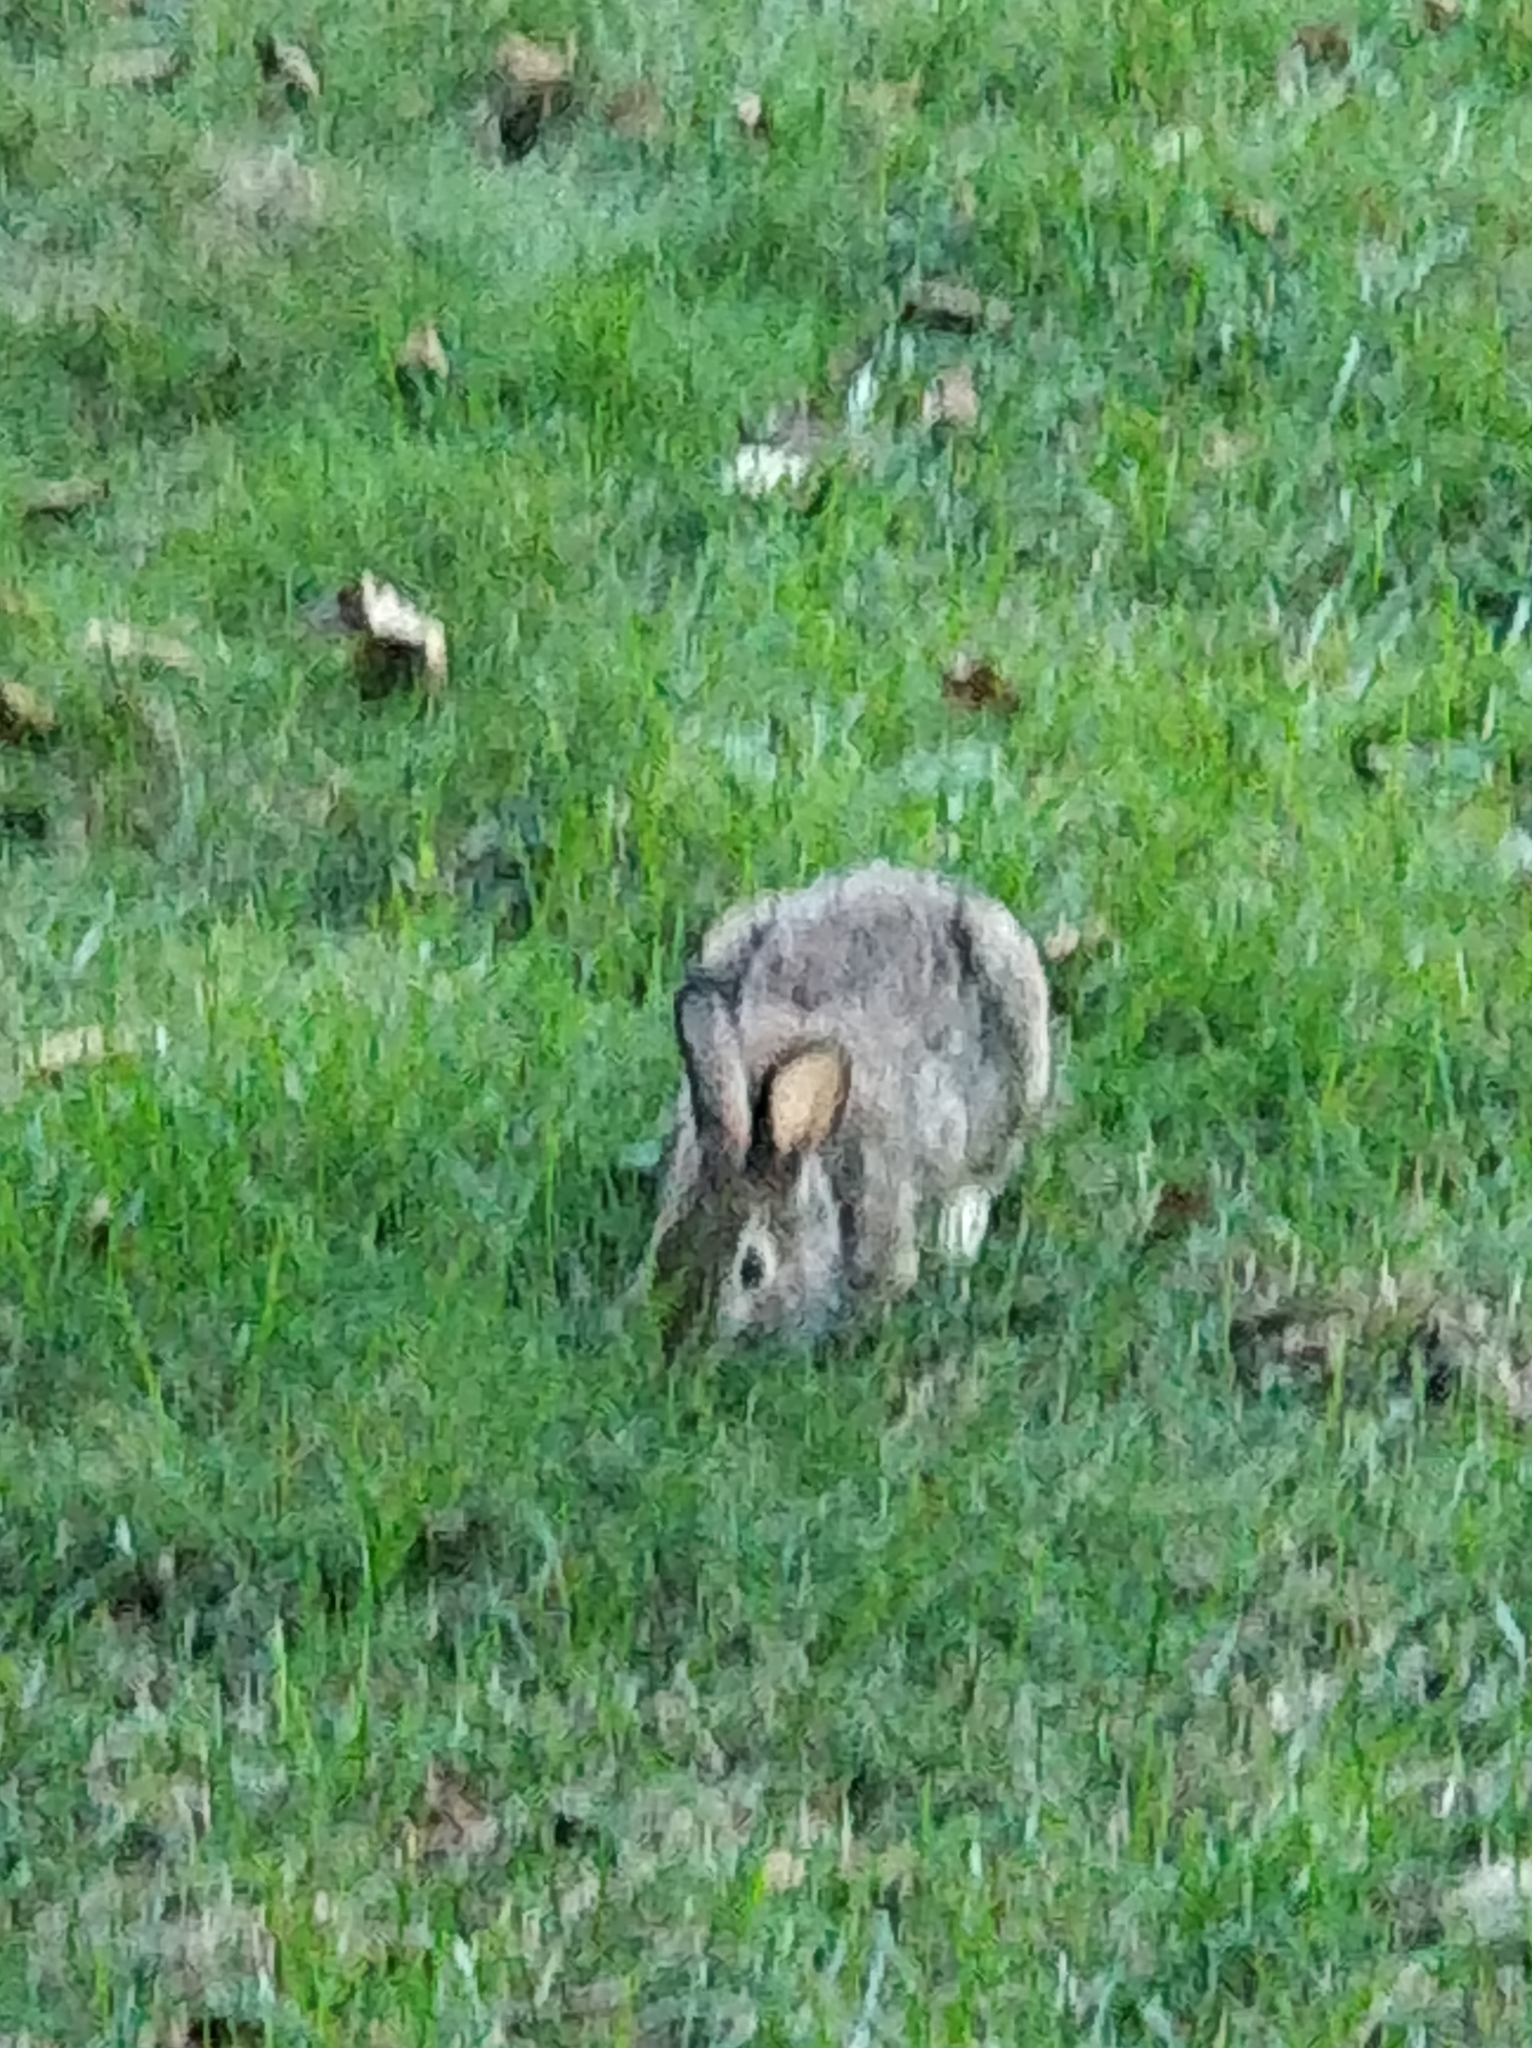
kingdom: Animalia
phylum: Chordata
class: Mammalia
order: Lagomorpha
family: Leporidae
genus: Sylvilagus
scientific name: Sylvilagus floridanus
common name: Eastern cottontail
